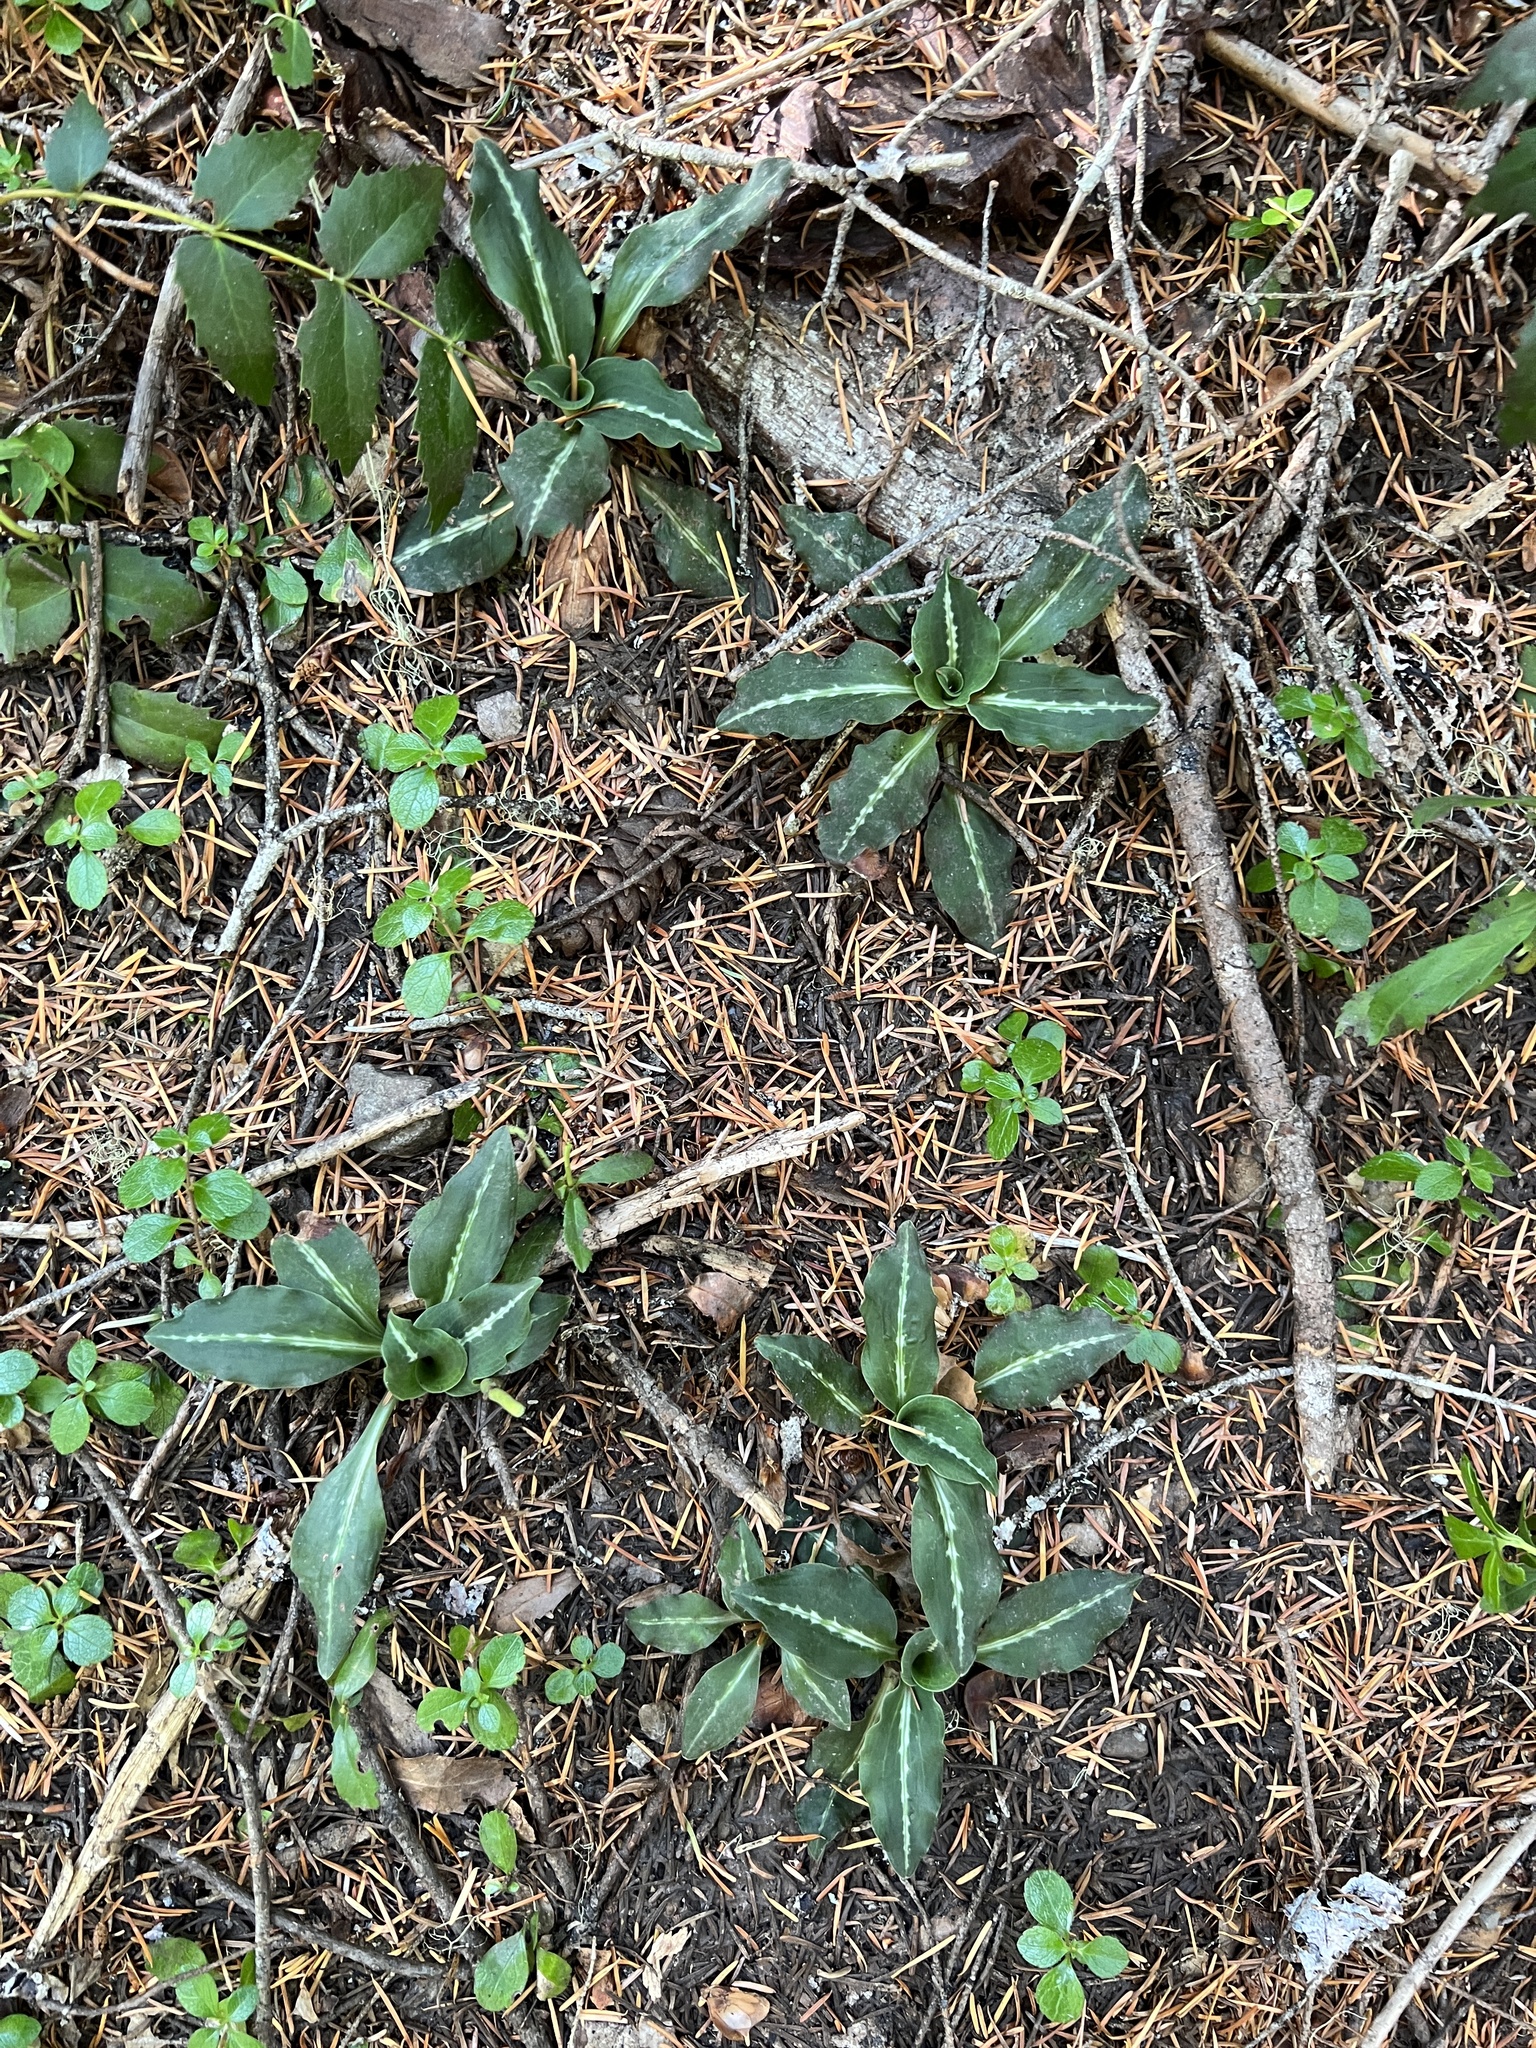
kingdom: Plantae
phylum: Tracheophyta
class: Liliopsida
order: Asparagales
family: Orchidaceae
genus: Goodyera
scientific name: Goodyera oblongifolia
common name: Giant rattlesnake-plantain
